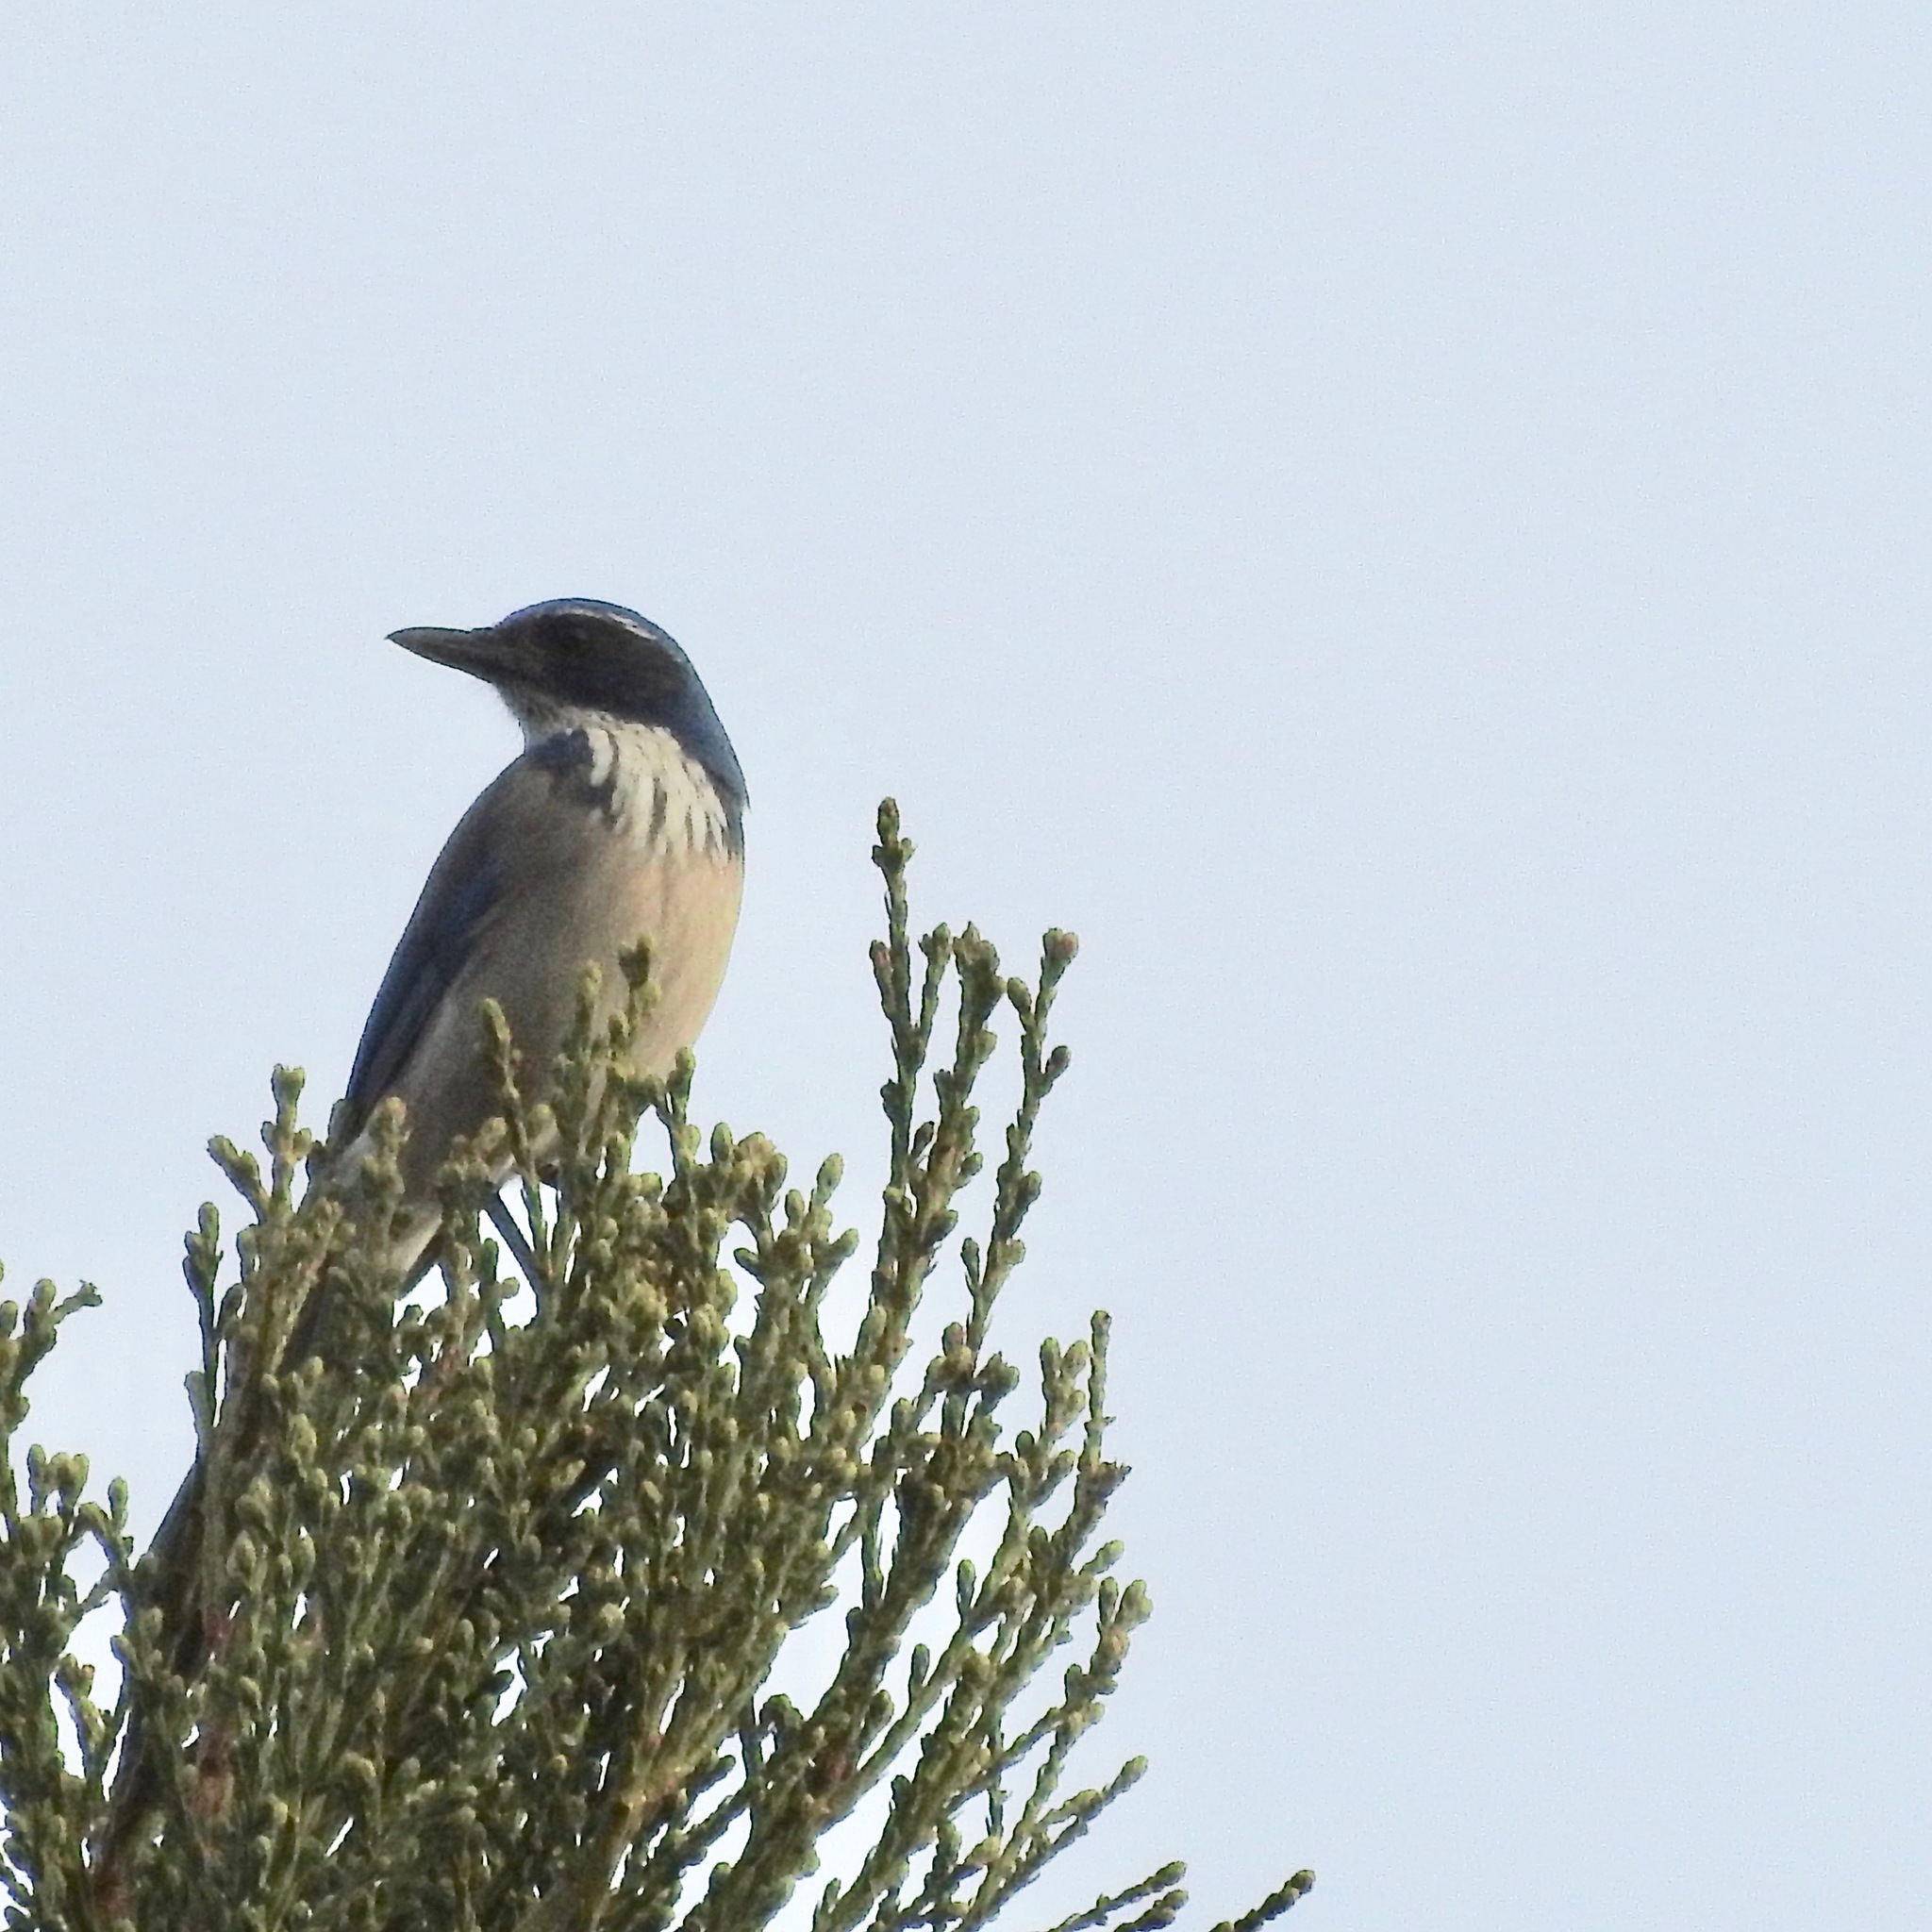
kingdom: Animalia
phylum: Chordata
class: Aves
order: Passeriformes
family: Corvidae
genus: Aphelocoma
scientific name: Aphelocoma californica
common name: California scrub-jay
